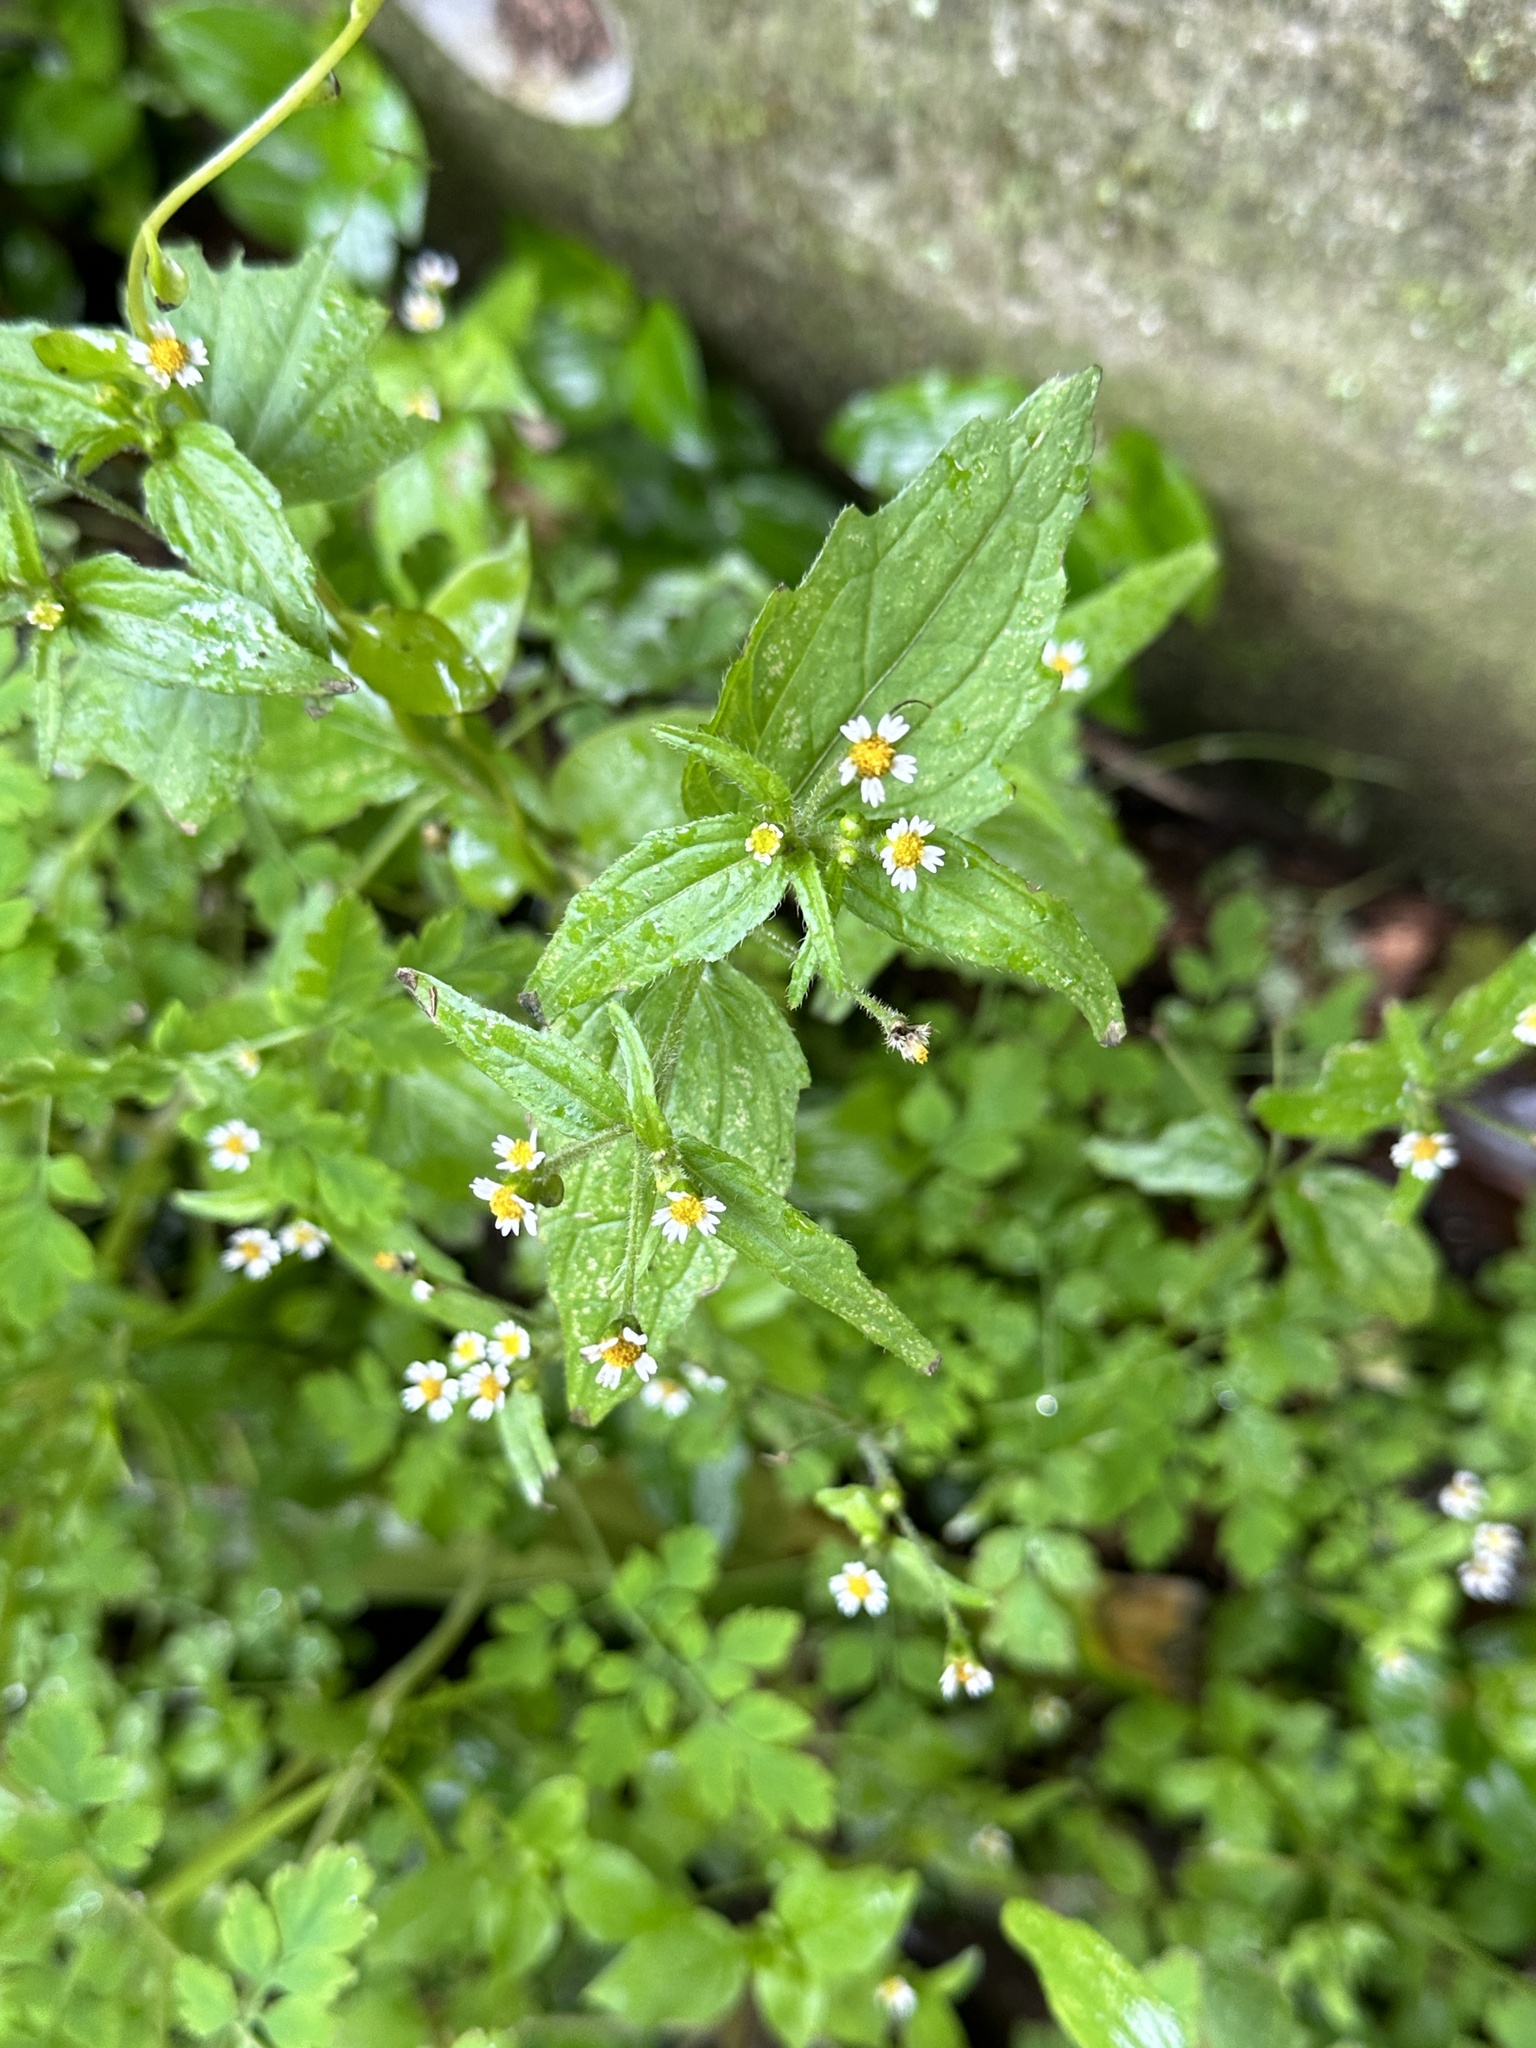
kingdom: Plantae
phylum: Tracheophyta
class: Magnoliopsida
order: Asterales
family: Asteraceae
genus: Galinsoga
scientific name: Galinsoga quadriradiata
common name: Shaggy soldier
